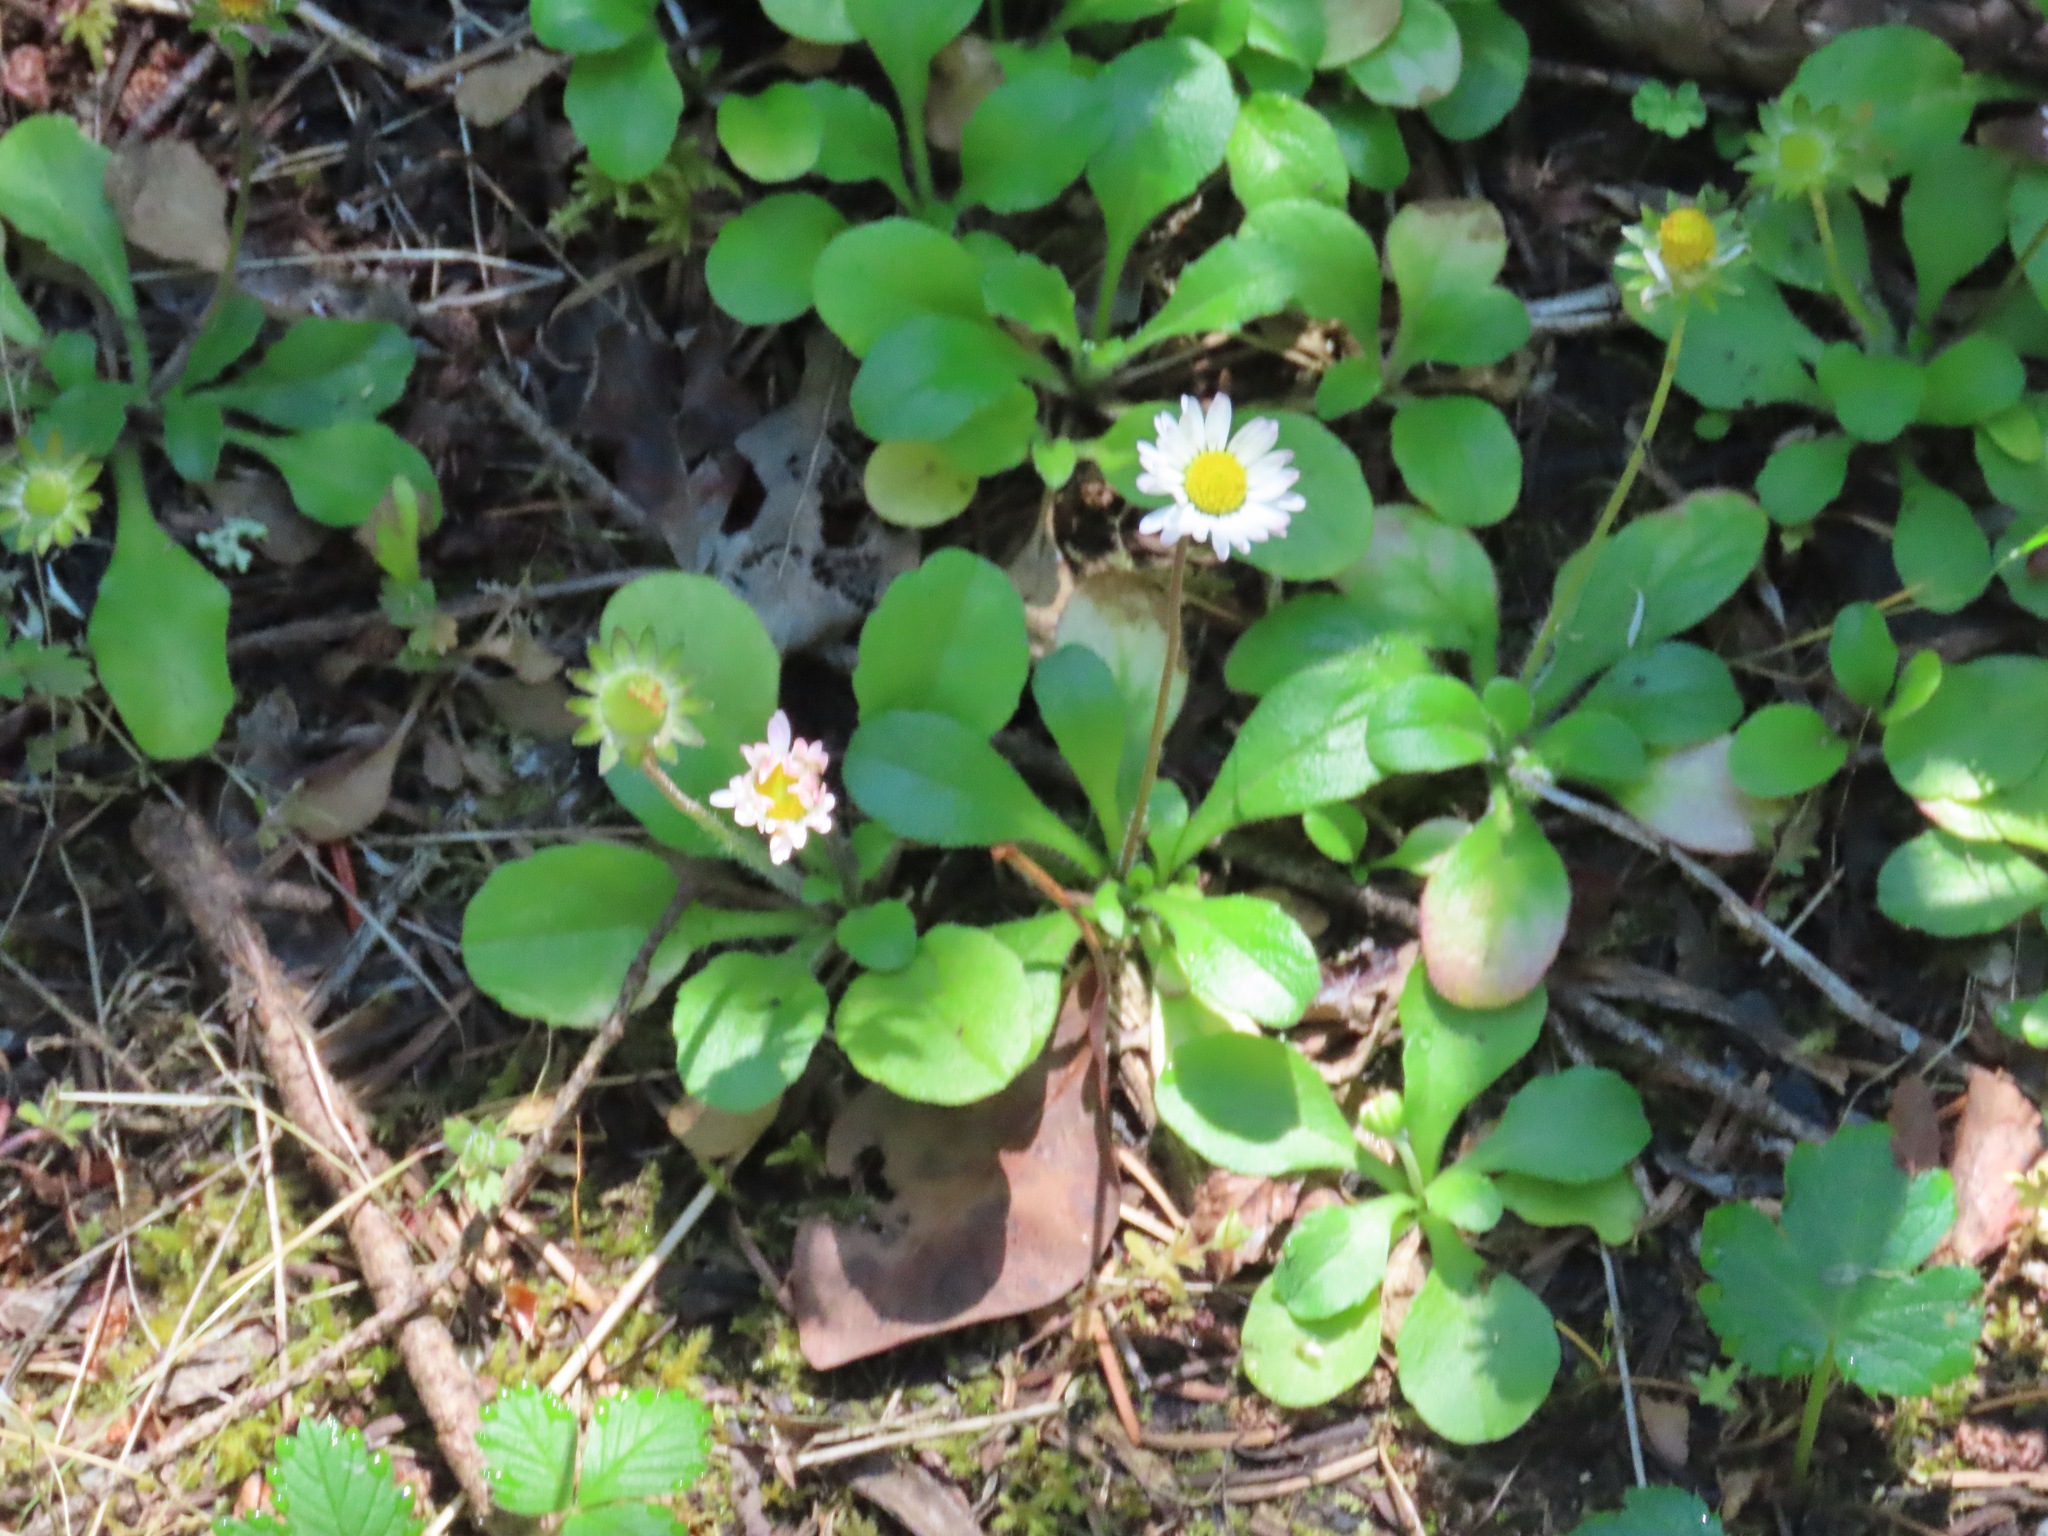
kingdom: Plantae
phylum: Tracheophyta
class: Magnoliopsida
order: Asterales
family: Asteraceae
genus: Bellis
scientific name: Bellis perennis
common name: Lawndaisy
